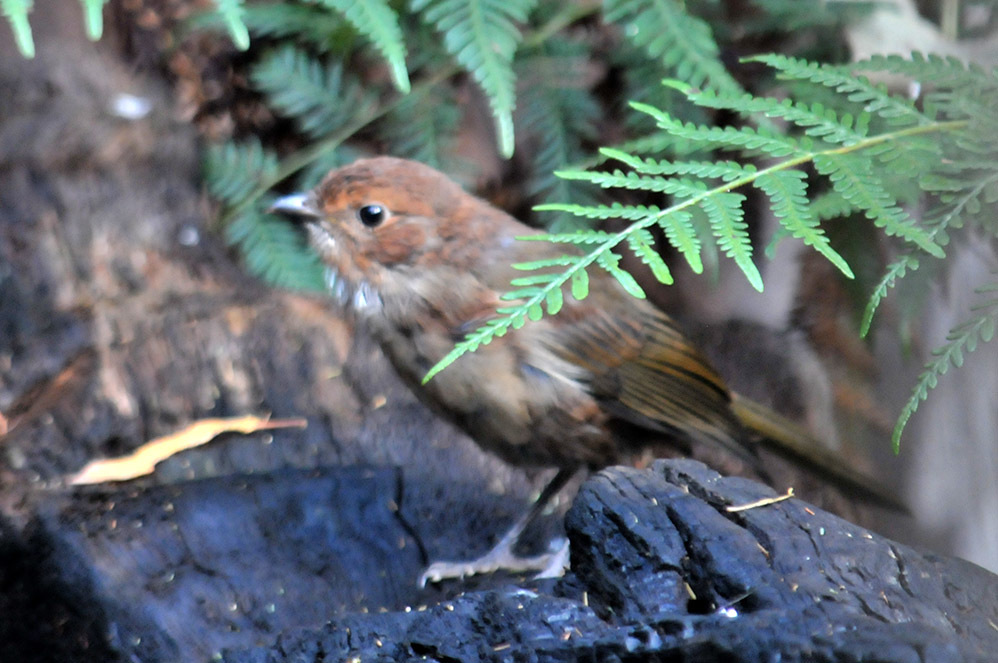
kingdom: Animalia
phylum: Chordata
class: Aves
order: Passeriformes
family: Pachycephalidae
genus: Pachycephala
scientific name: Pachycephala olivacea
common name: Olive whistler
